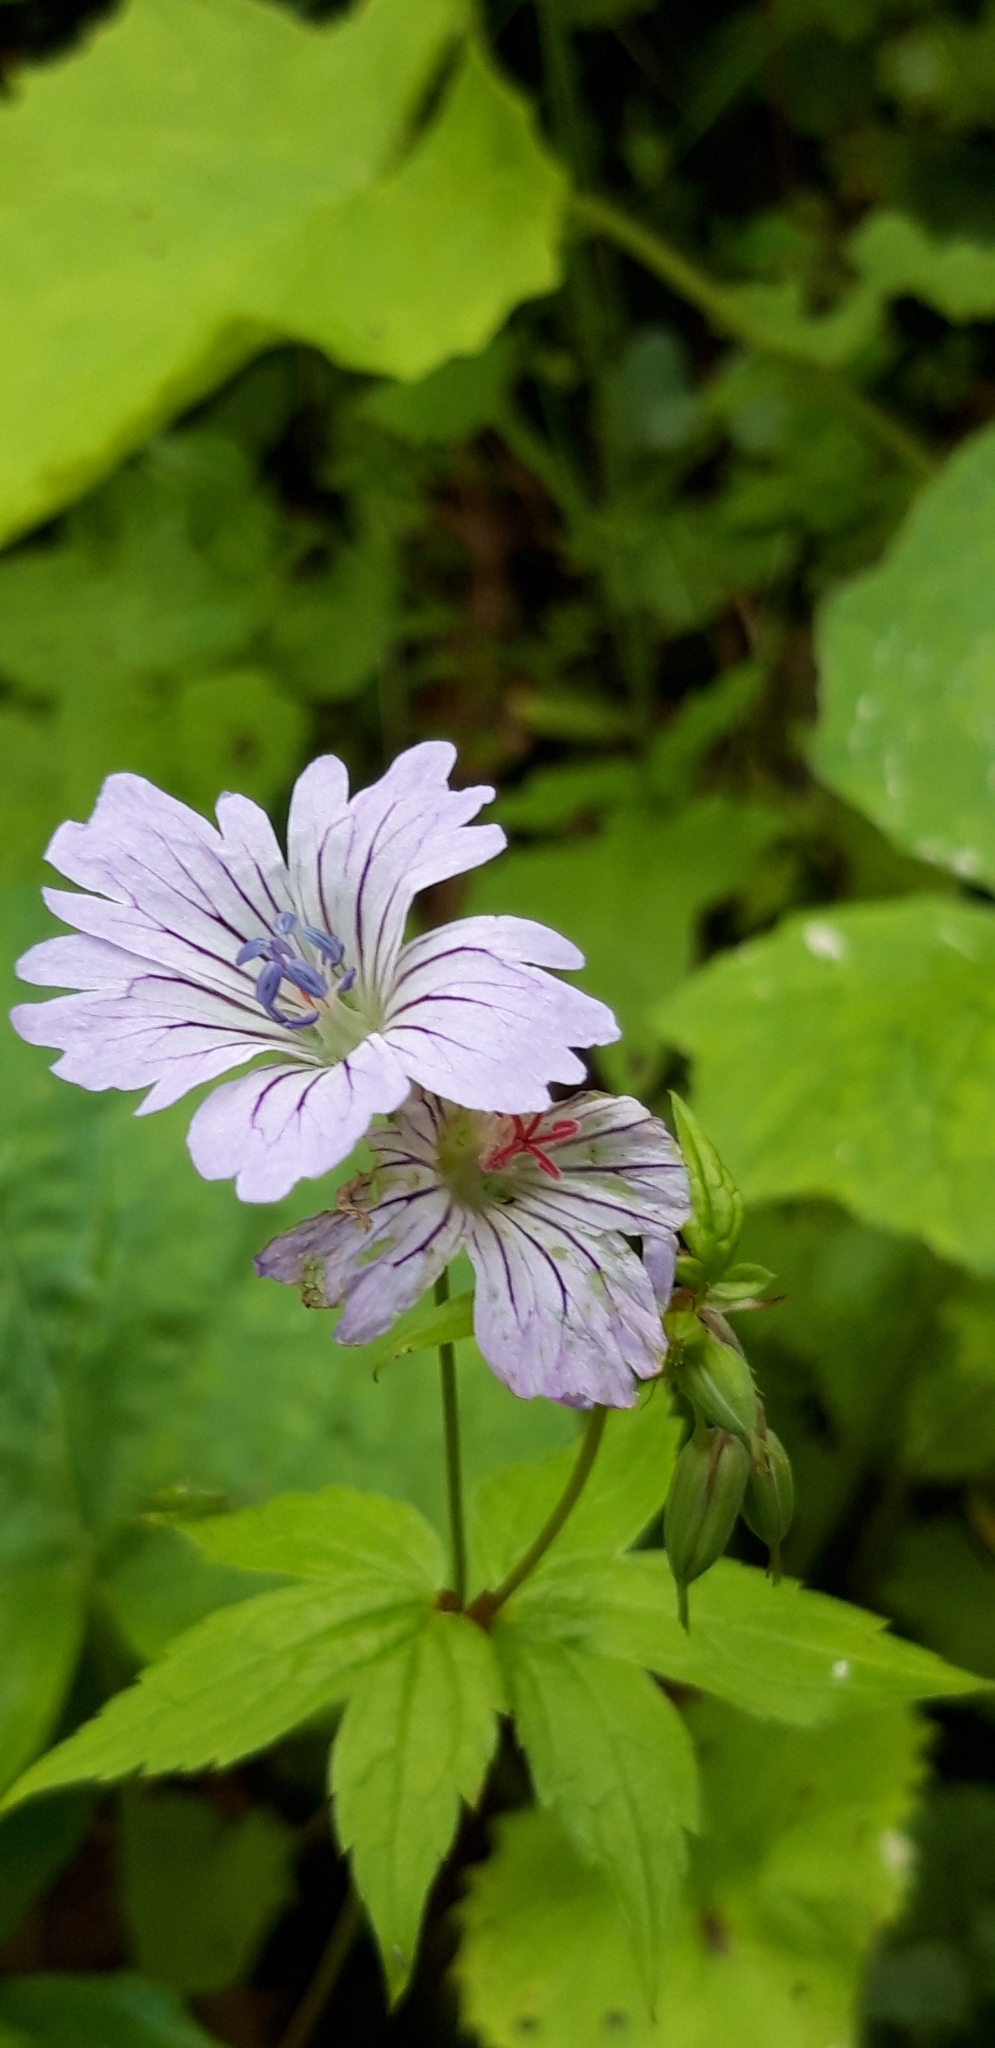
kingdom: Plantae
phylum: Tracheophyta
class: Magnoliopsida
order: Geraniales
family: Geraniaceae
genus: Geranium
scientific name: Geranium nodosum
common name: Knotted crane's-bill
